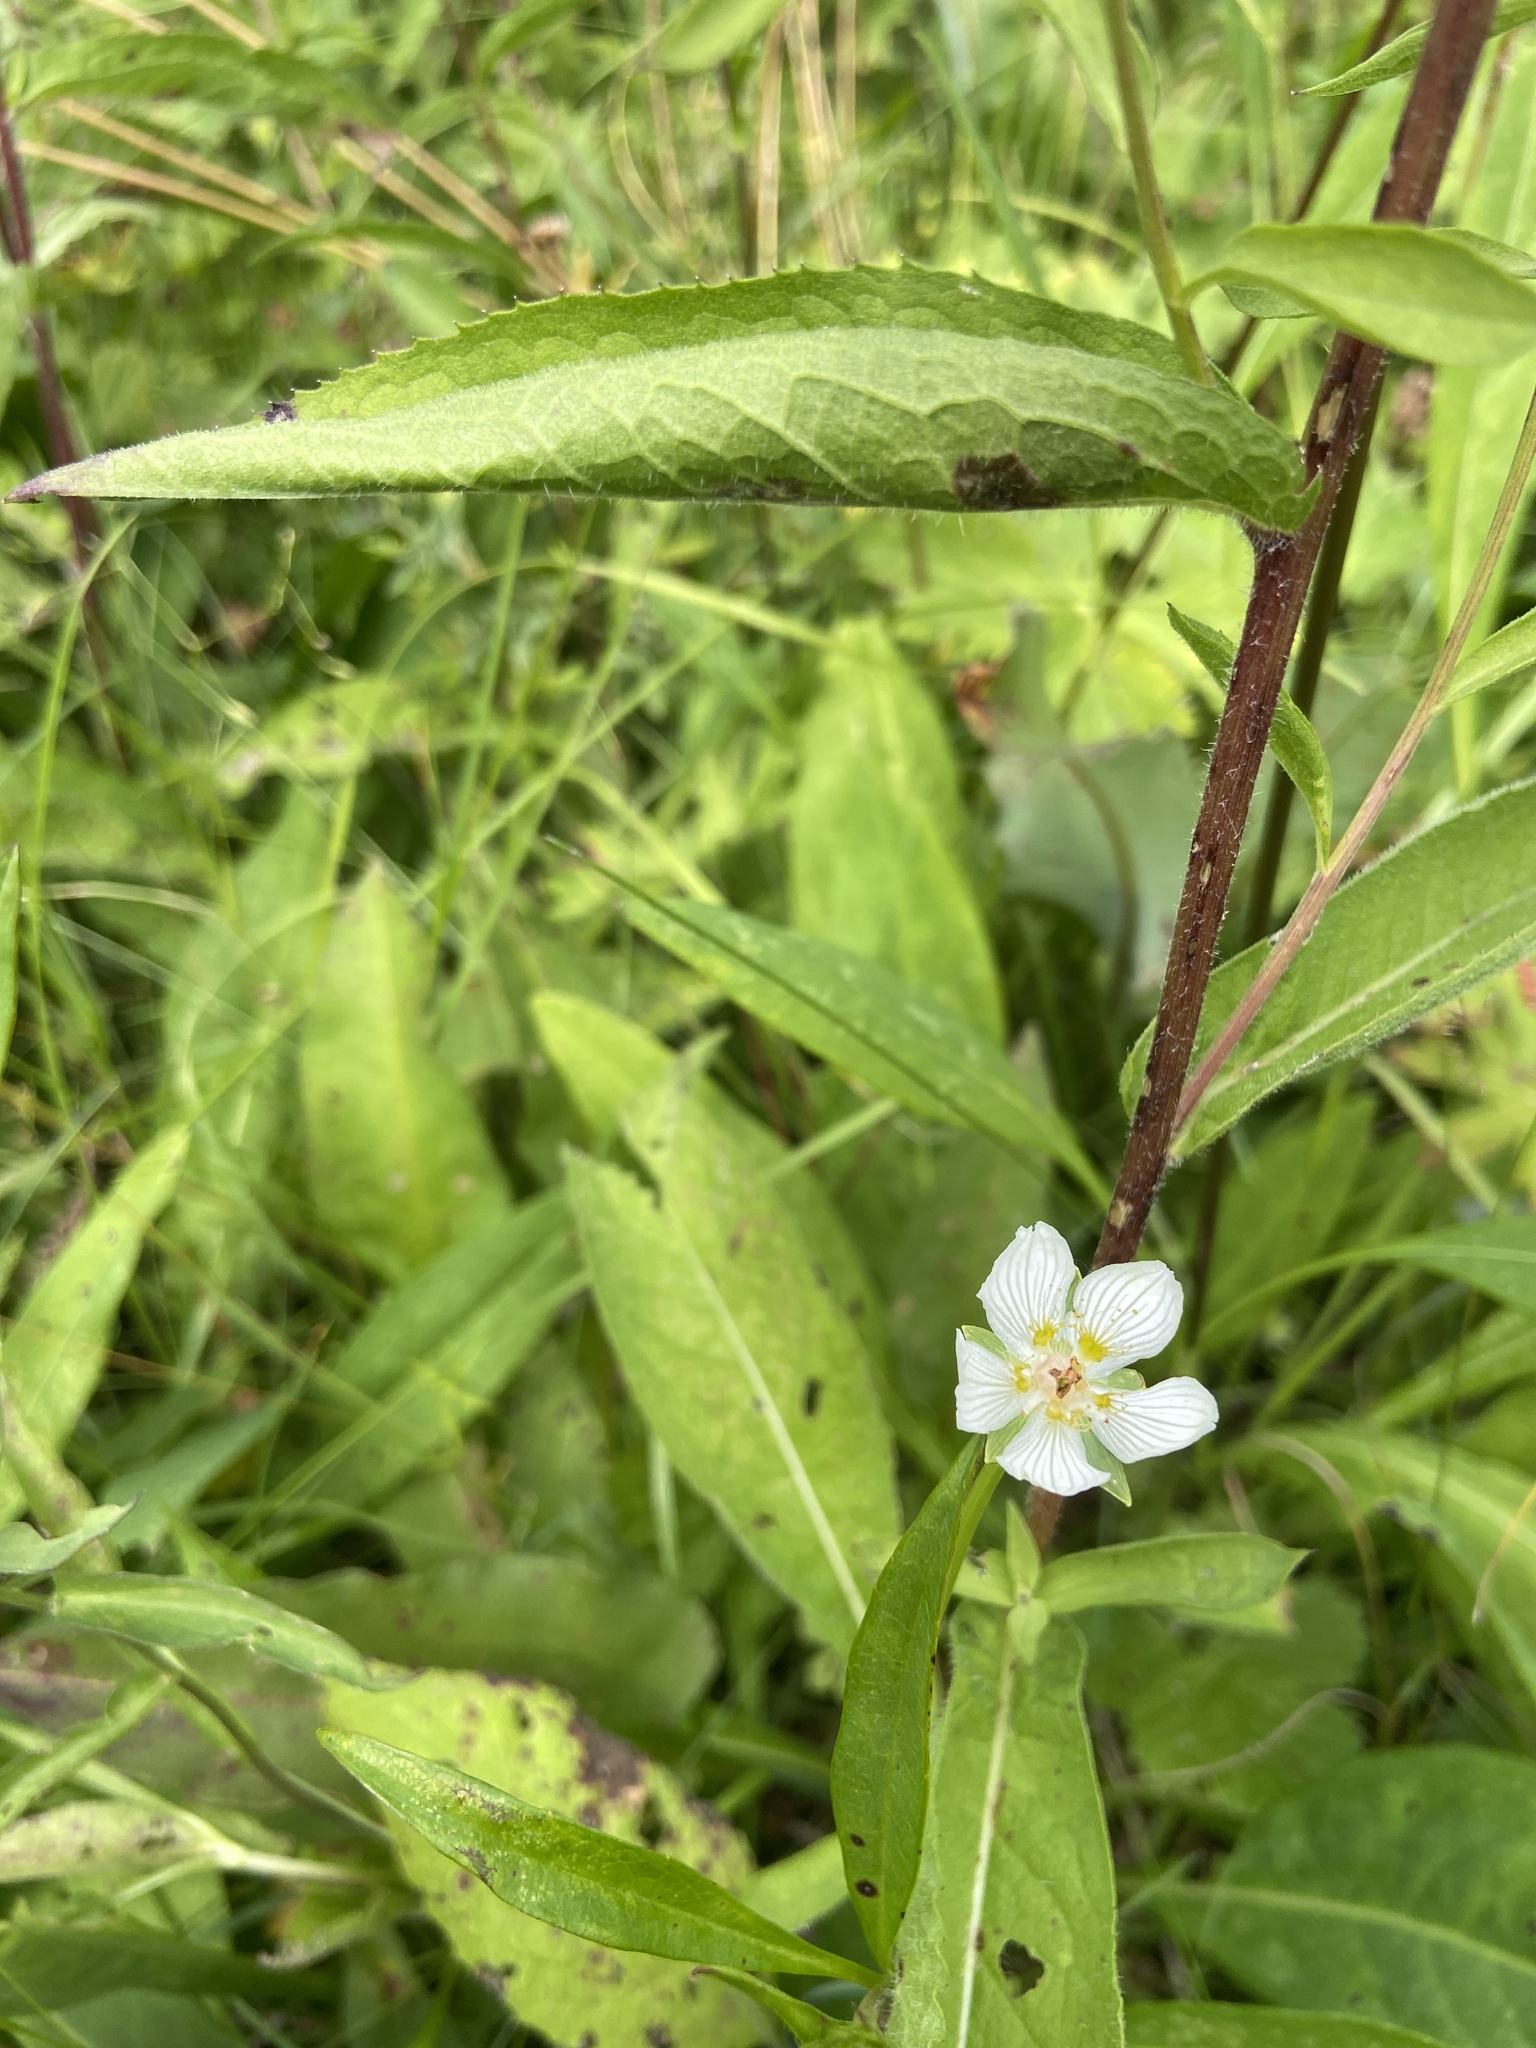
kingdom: Plantae
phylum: Tracheophyta
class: Magnoliopsida
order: Celastrales
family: Parnassiaceae
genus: Parnassia
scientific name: Parnassia palustris
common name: Grass-of-parnassus
